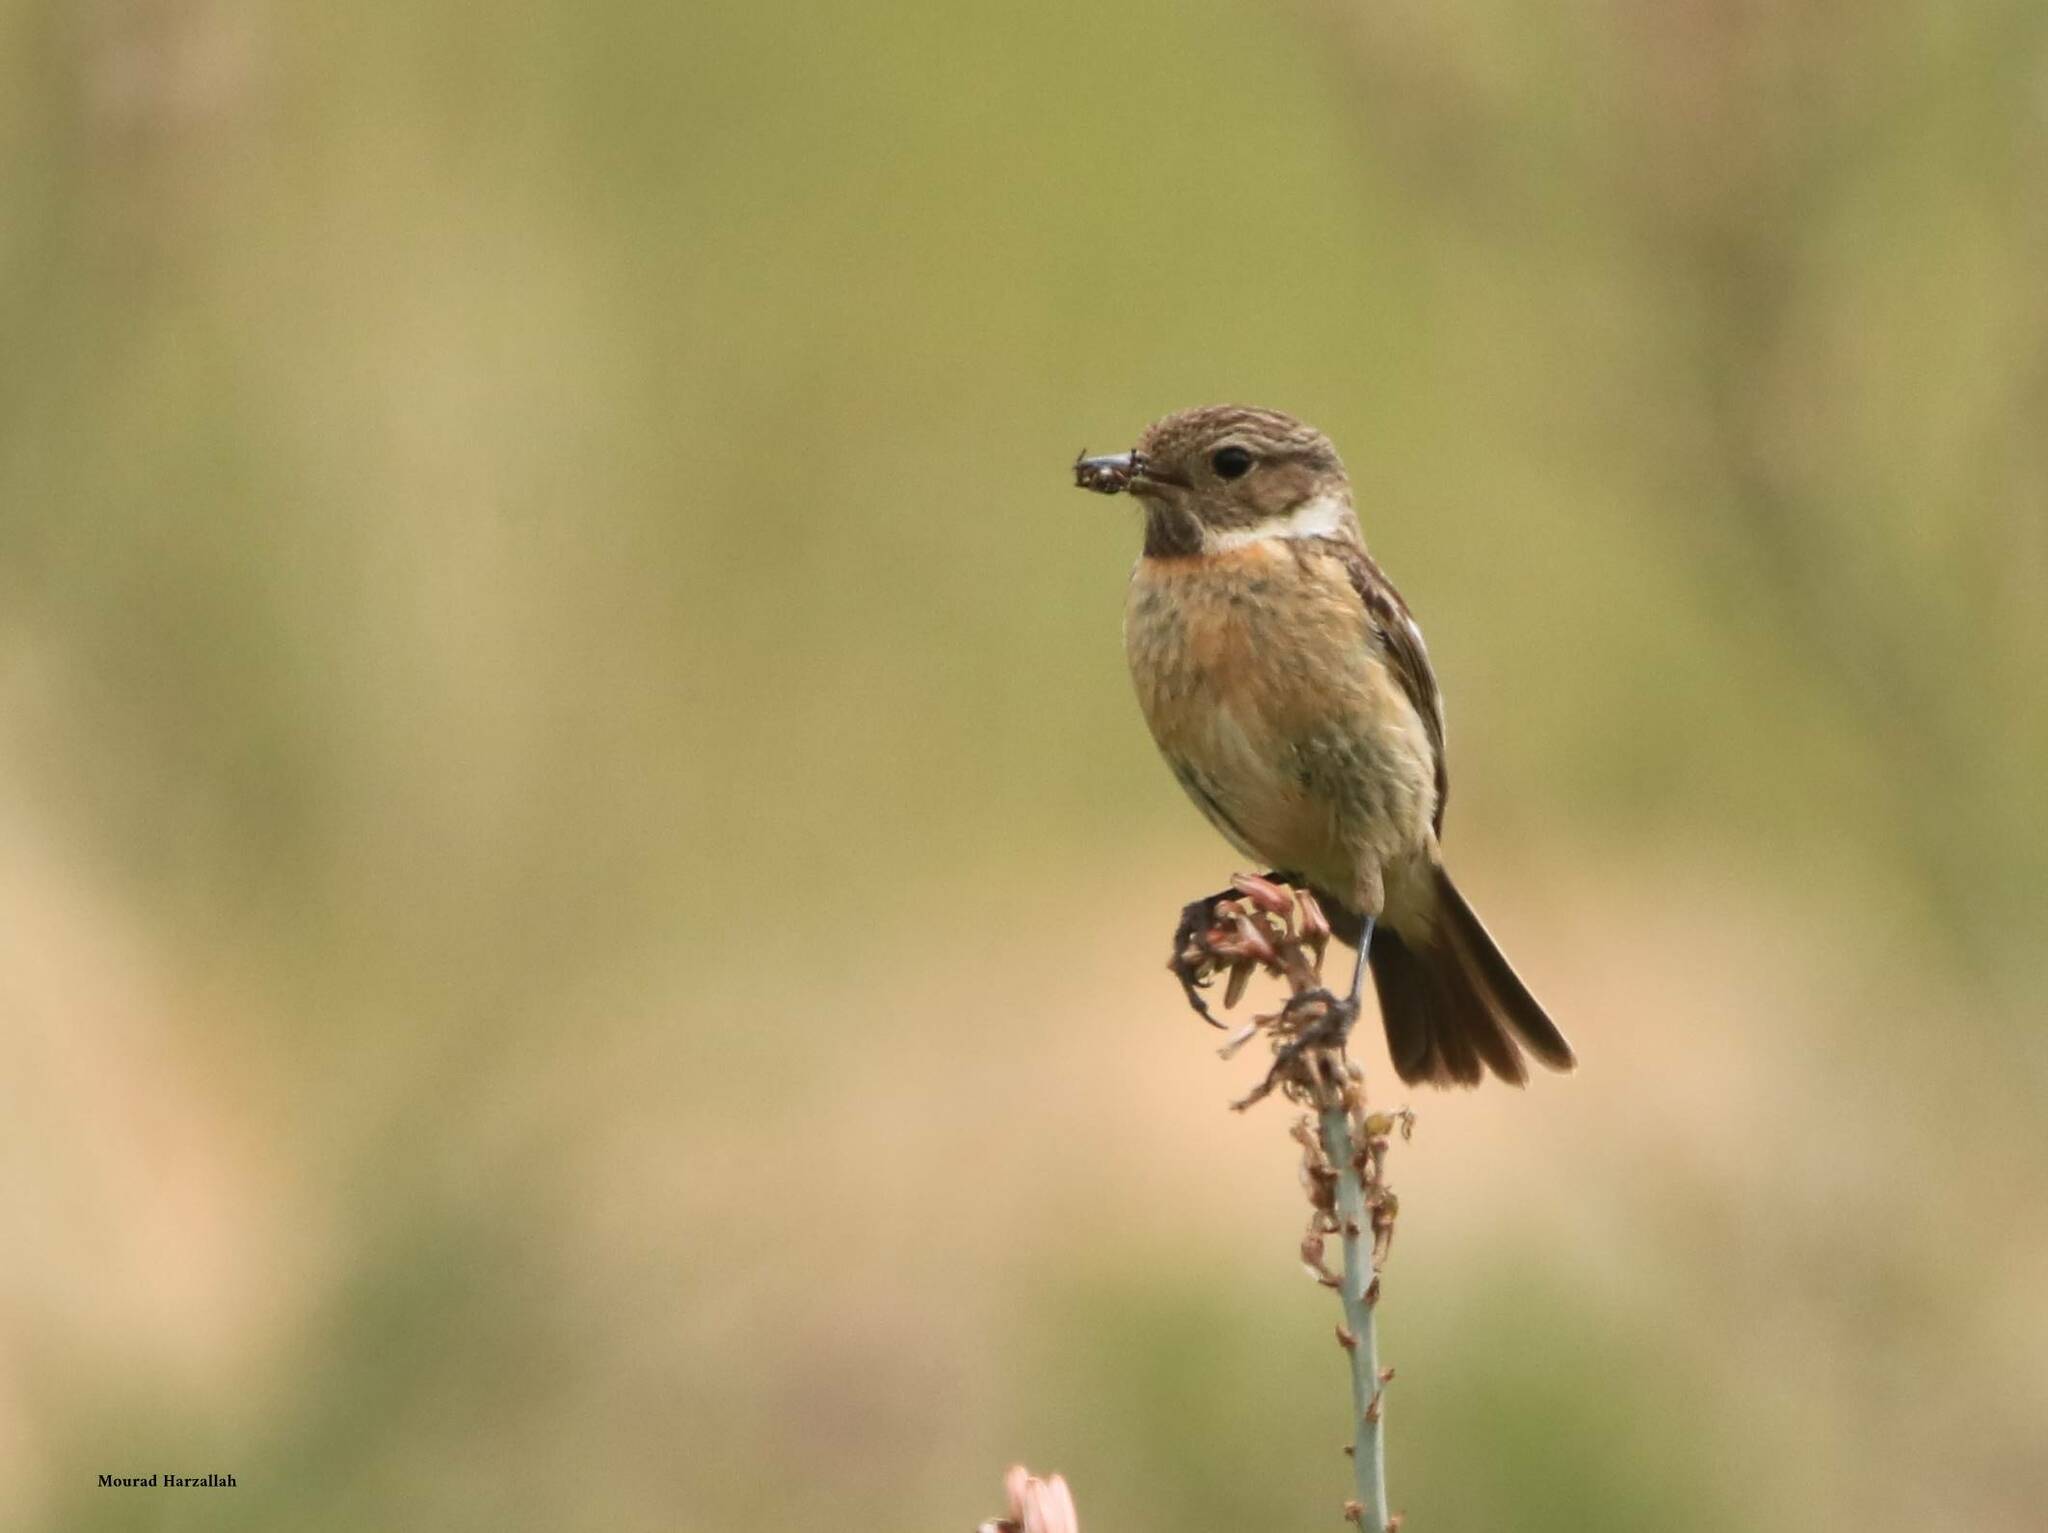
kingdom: Animalia
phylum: Chordata
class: Aves
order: Passeriformes
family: Muscicapidae
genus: Saxicola
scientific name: Saxicola rubicola
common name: European stonechat
